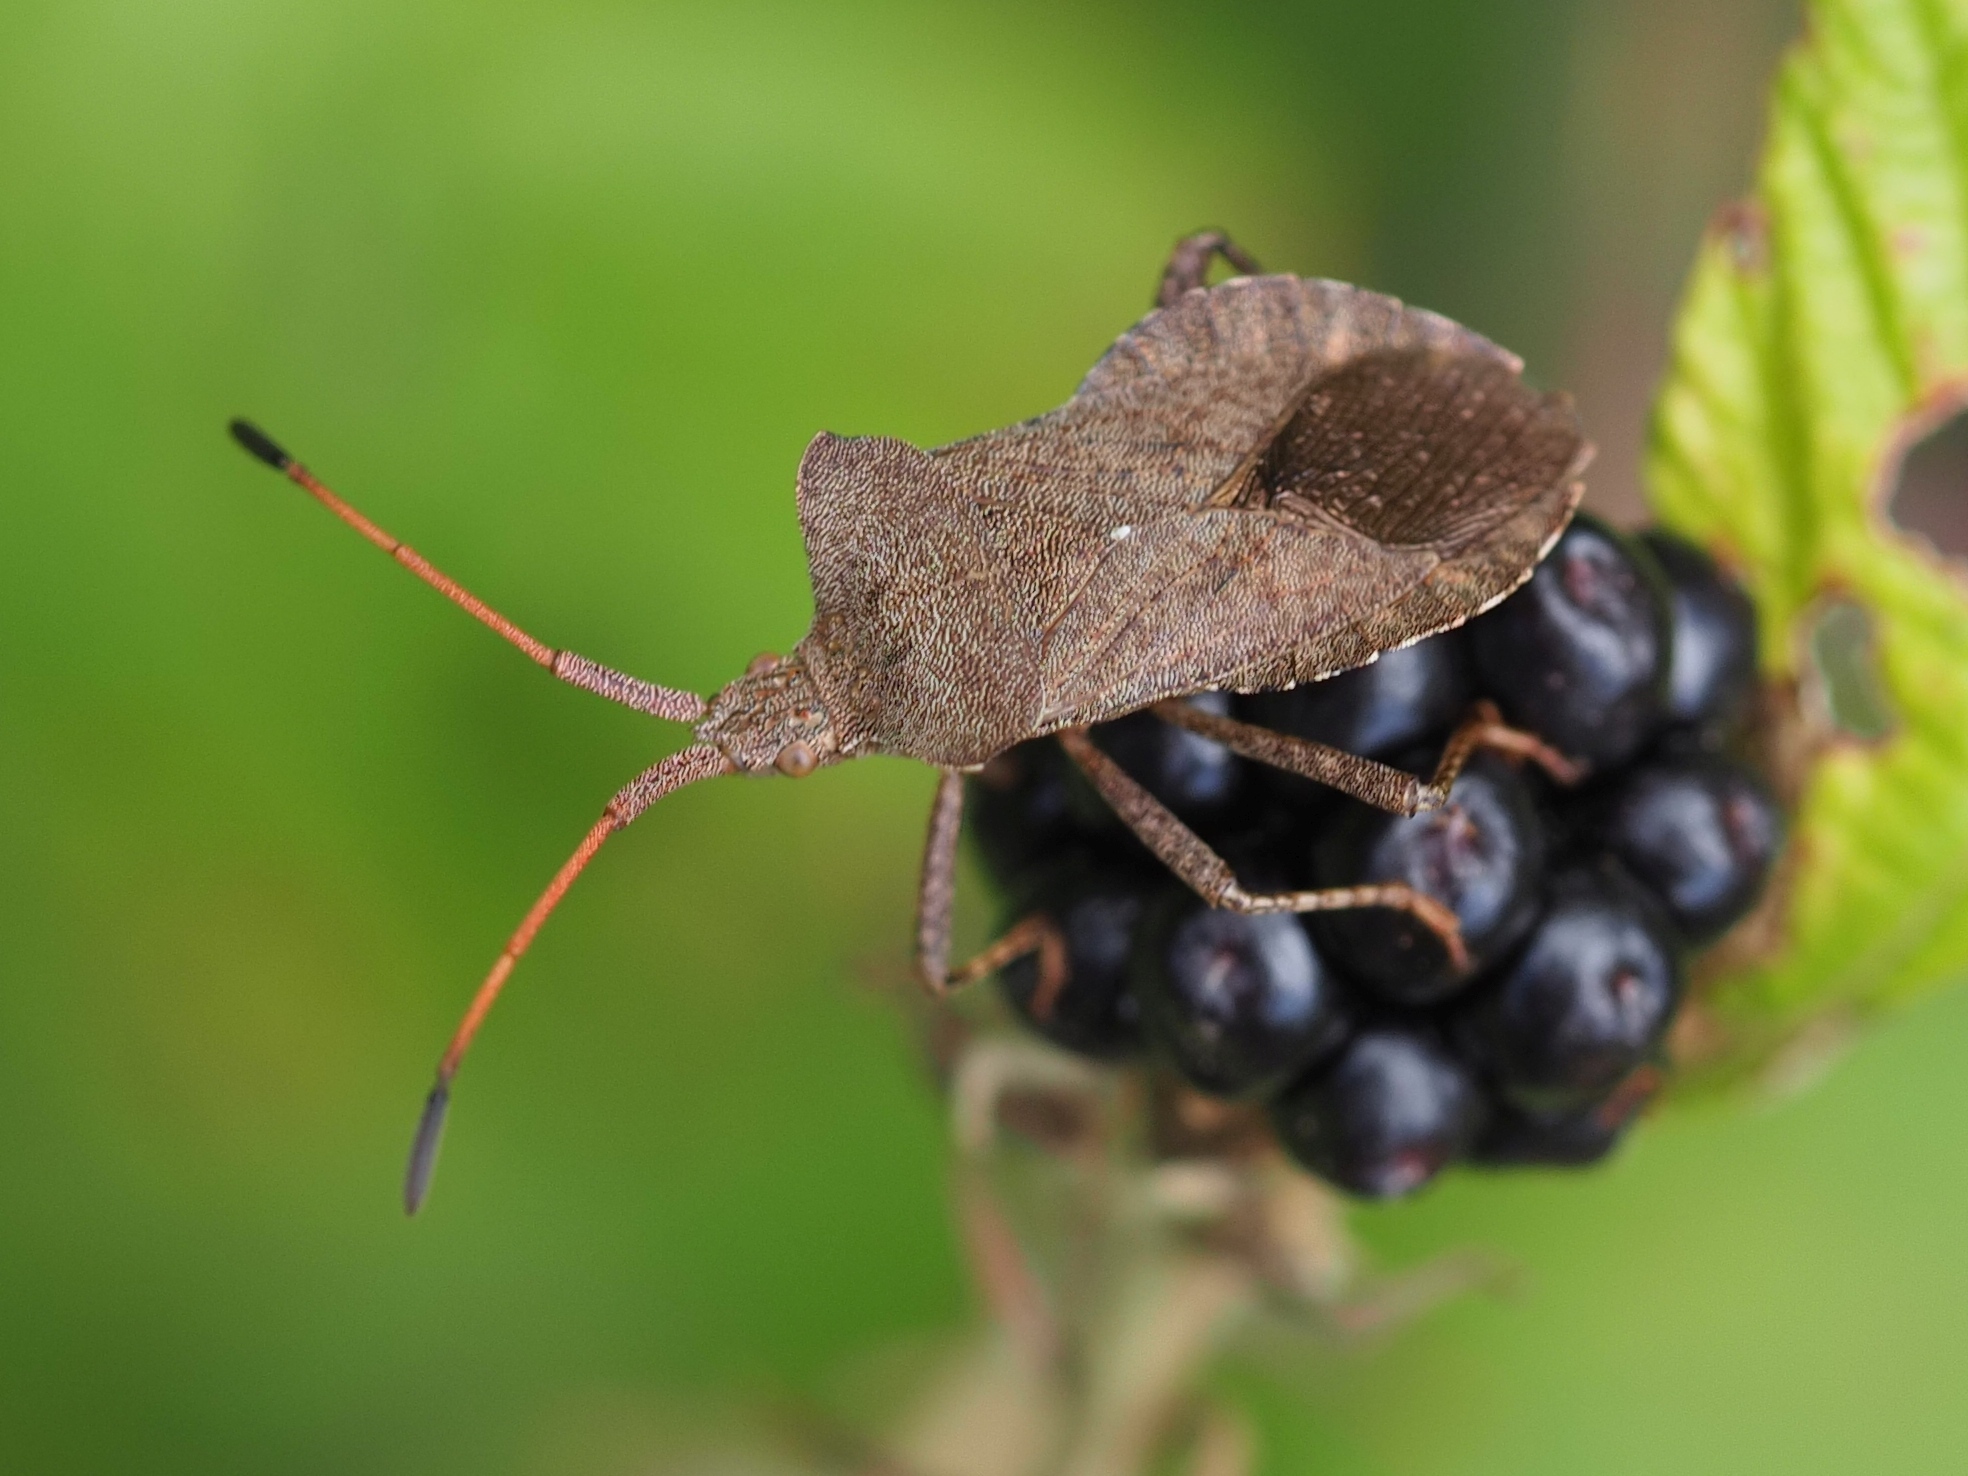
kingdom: Animalia
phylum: Arthropoda
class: Insecta
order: Hemiptera
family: Coreidae
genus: Coreus
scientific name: Coreus marginatus
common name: Dock bug
